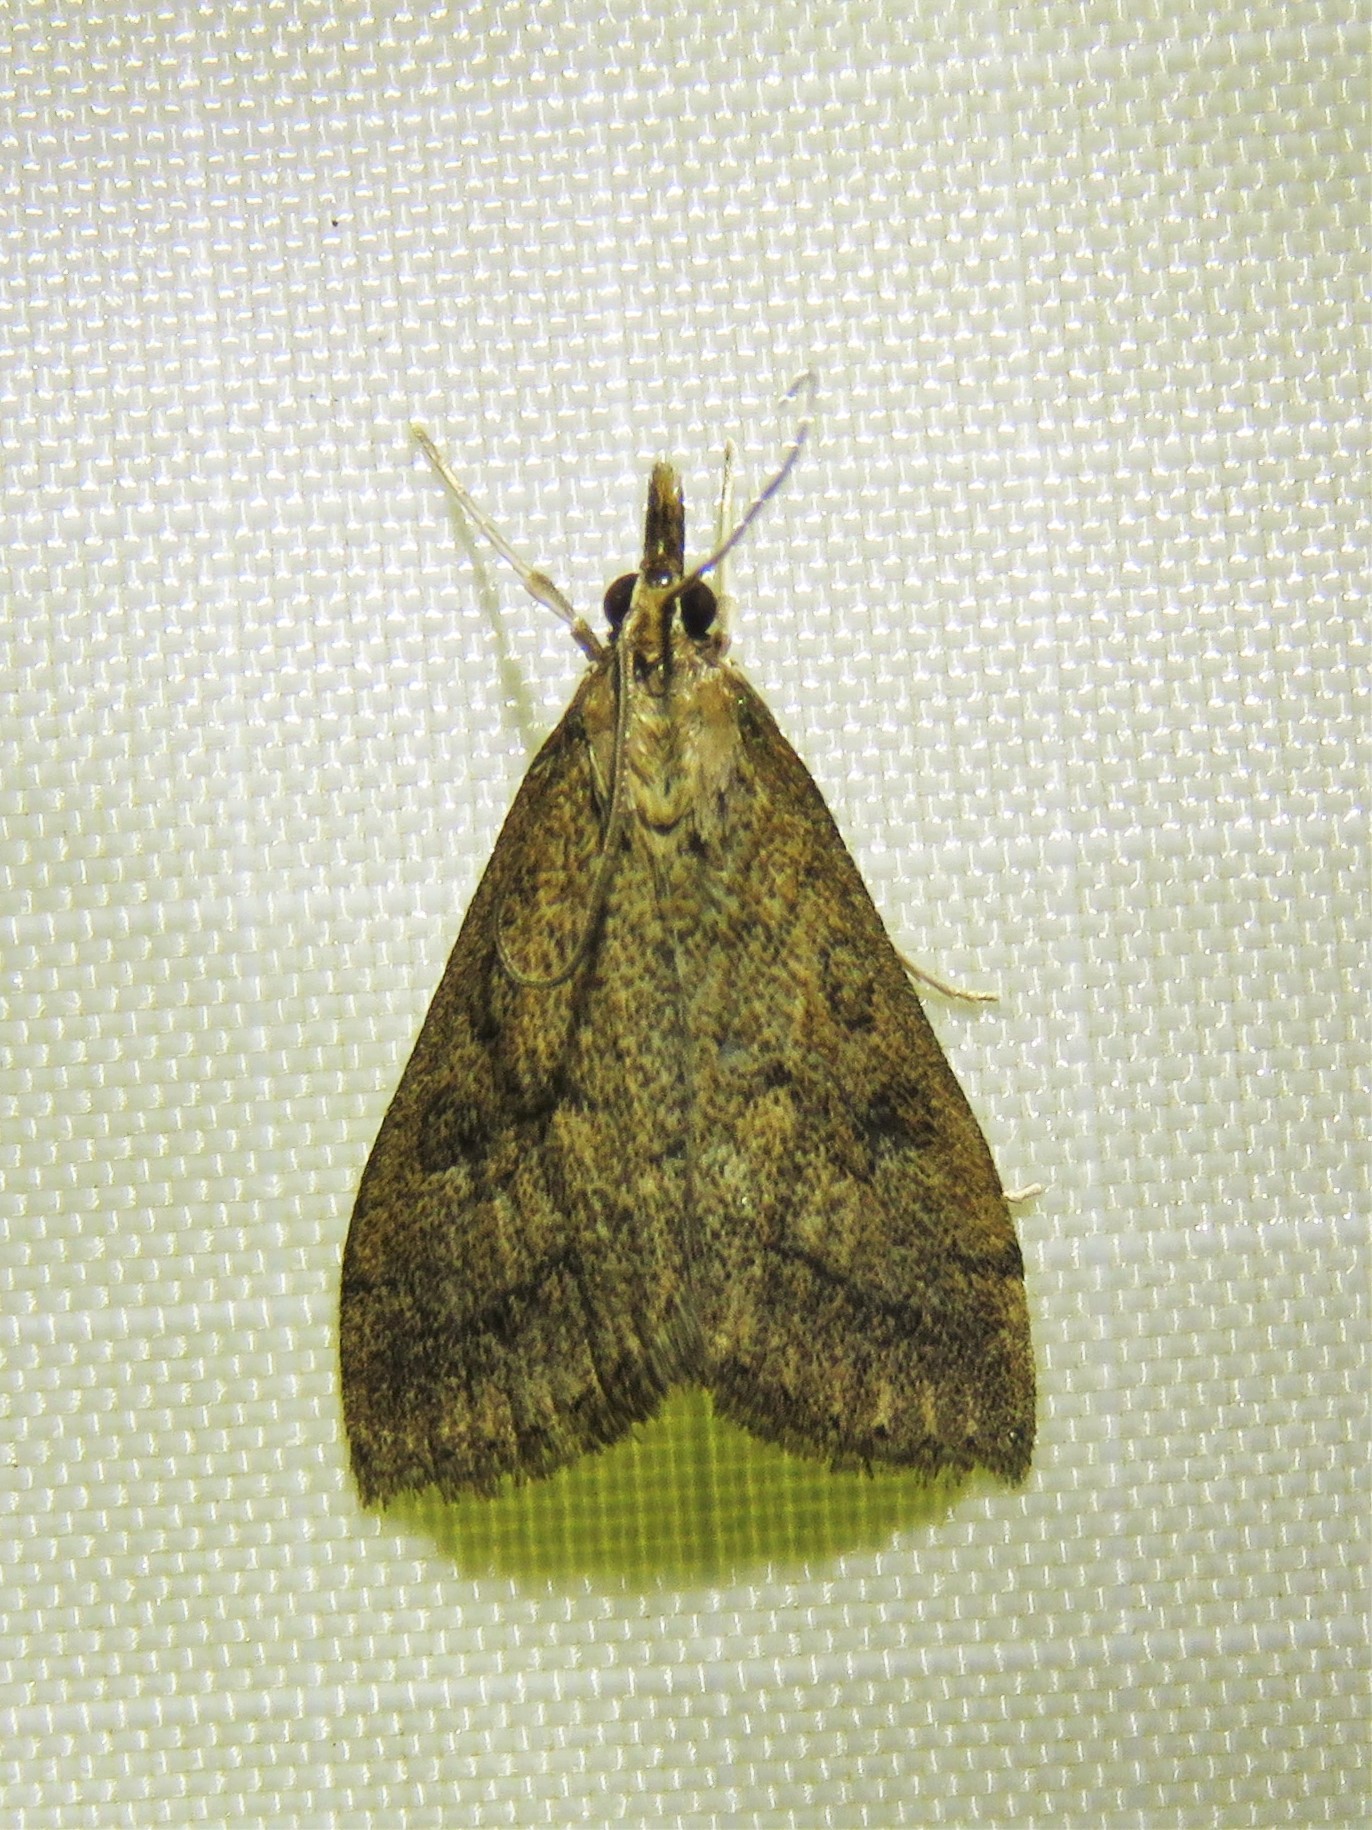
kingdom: Animalia
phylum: Arthropoda
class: Insecta
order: Lepidoptera
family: Crambidae
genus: Udea
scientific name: Udea rubigalis
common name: Celery leaftier moth
